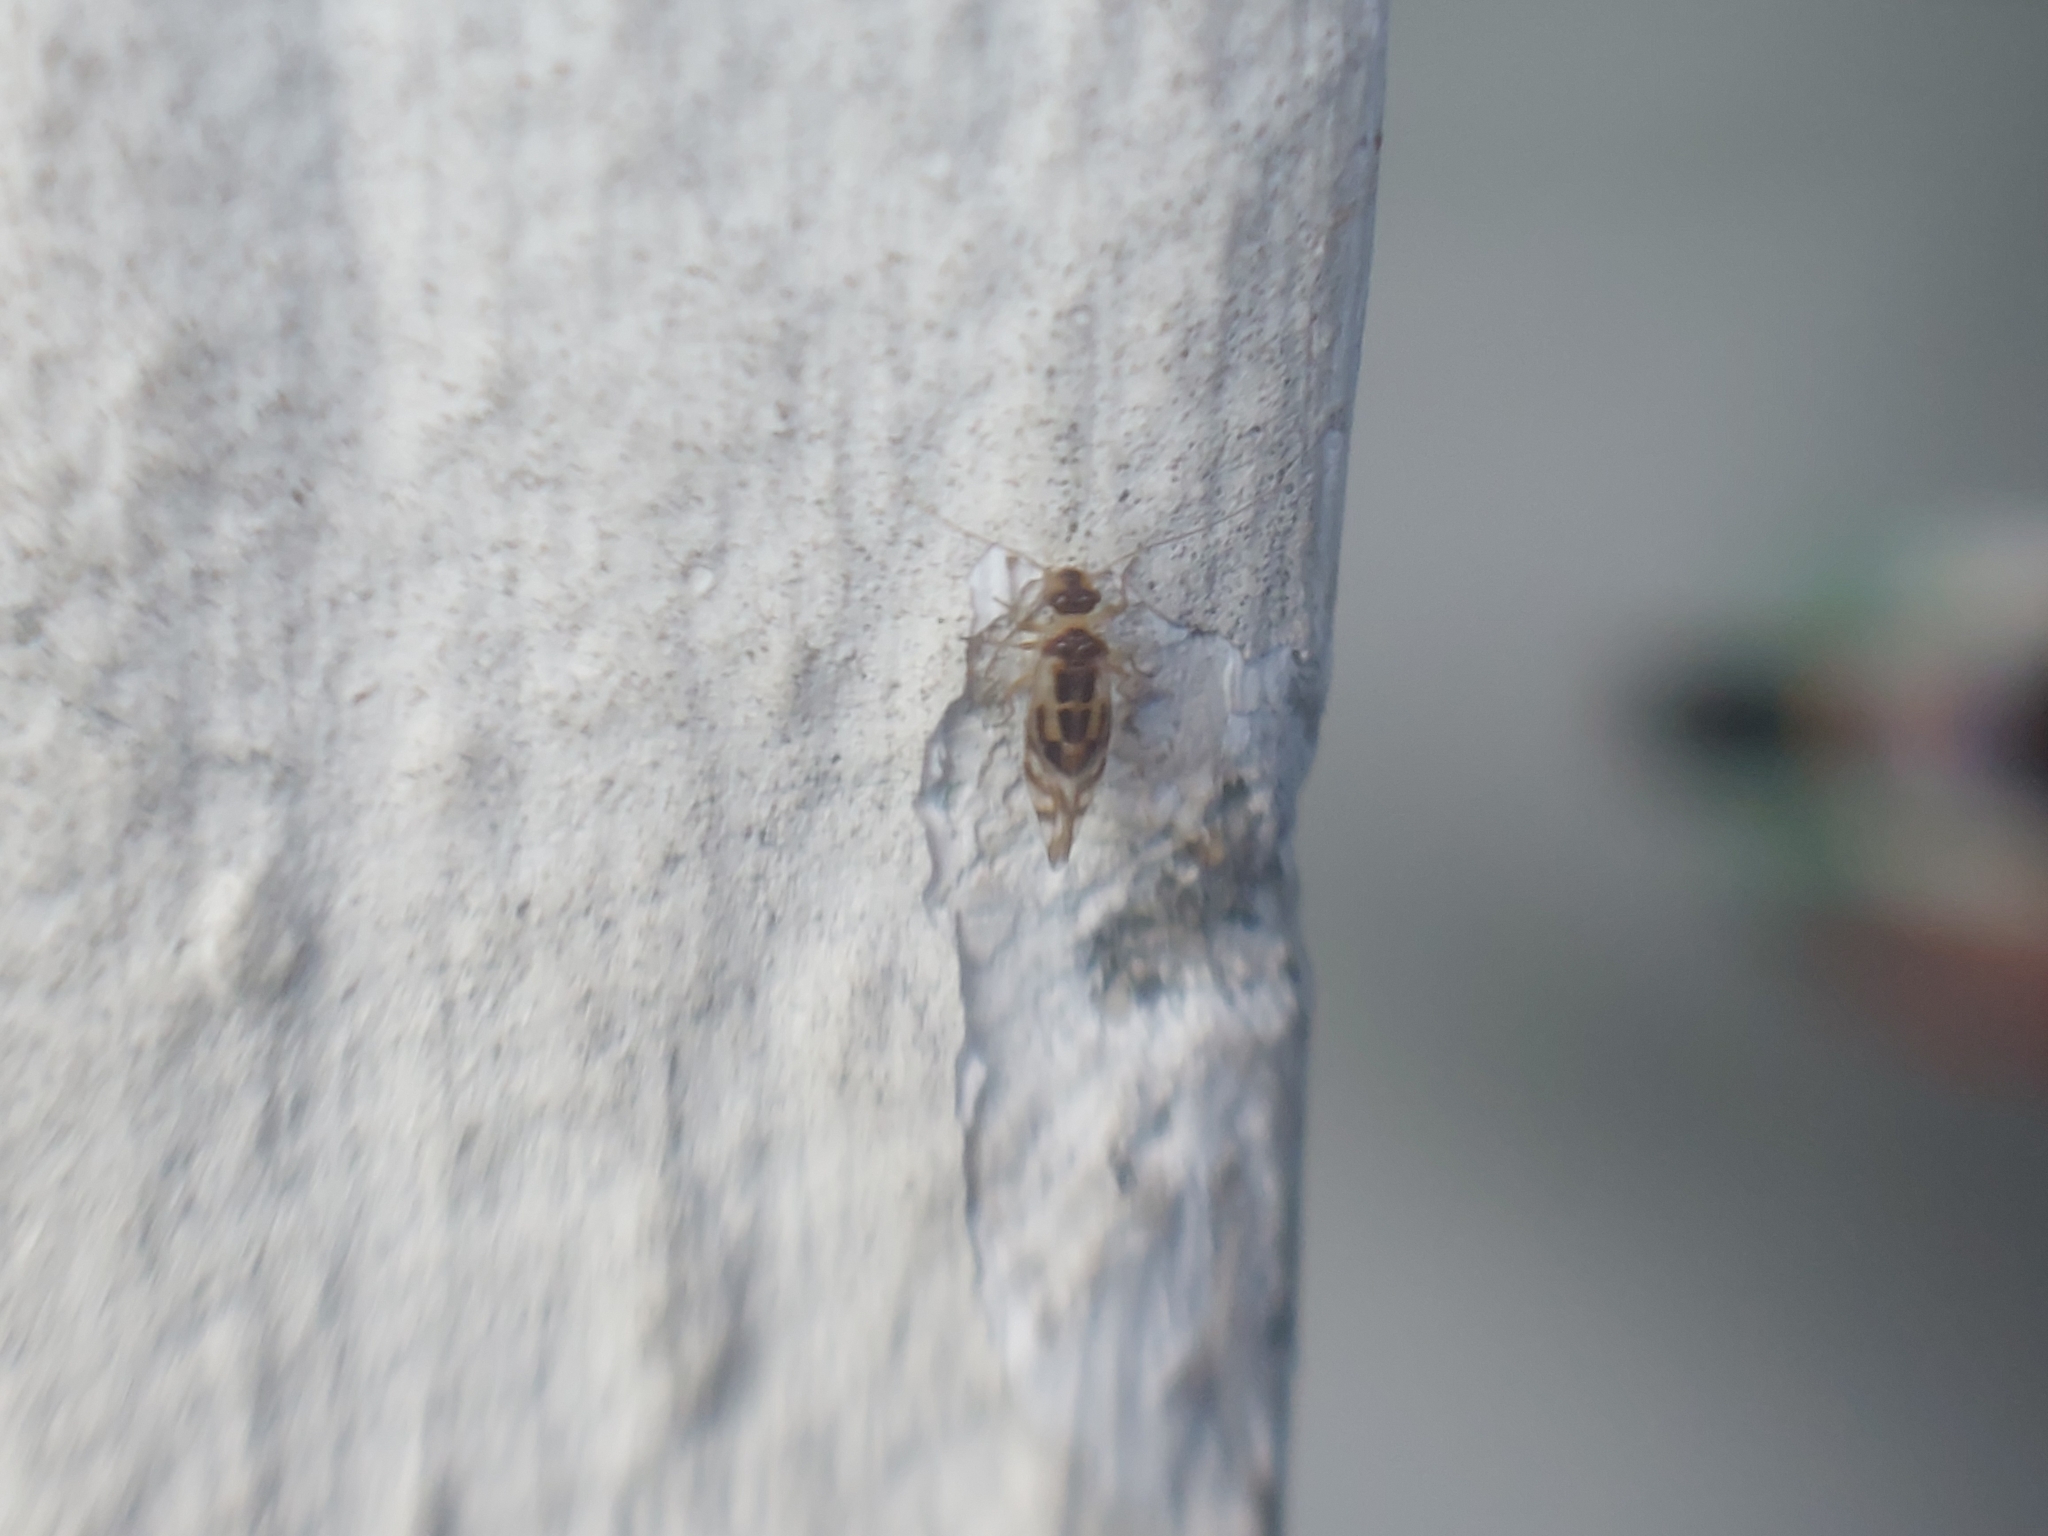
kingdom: Animalia
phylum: Arthropoda
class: Insecta
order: Psocodea
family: Stenopsocidae
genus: Graphopsocus
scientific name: Graphopsocus cruciatus
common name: Lizard bark louse
